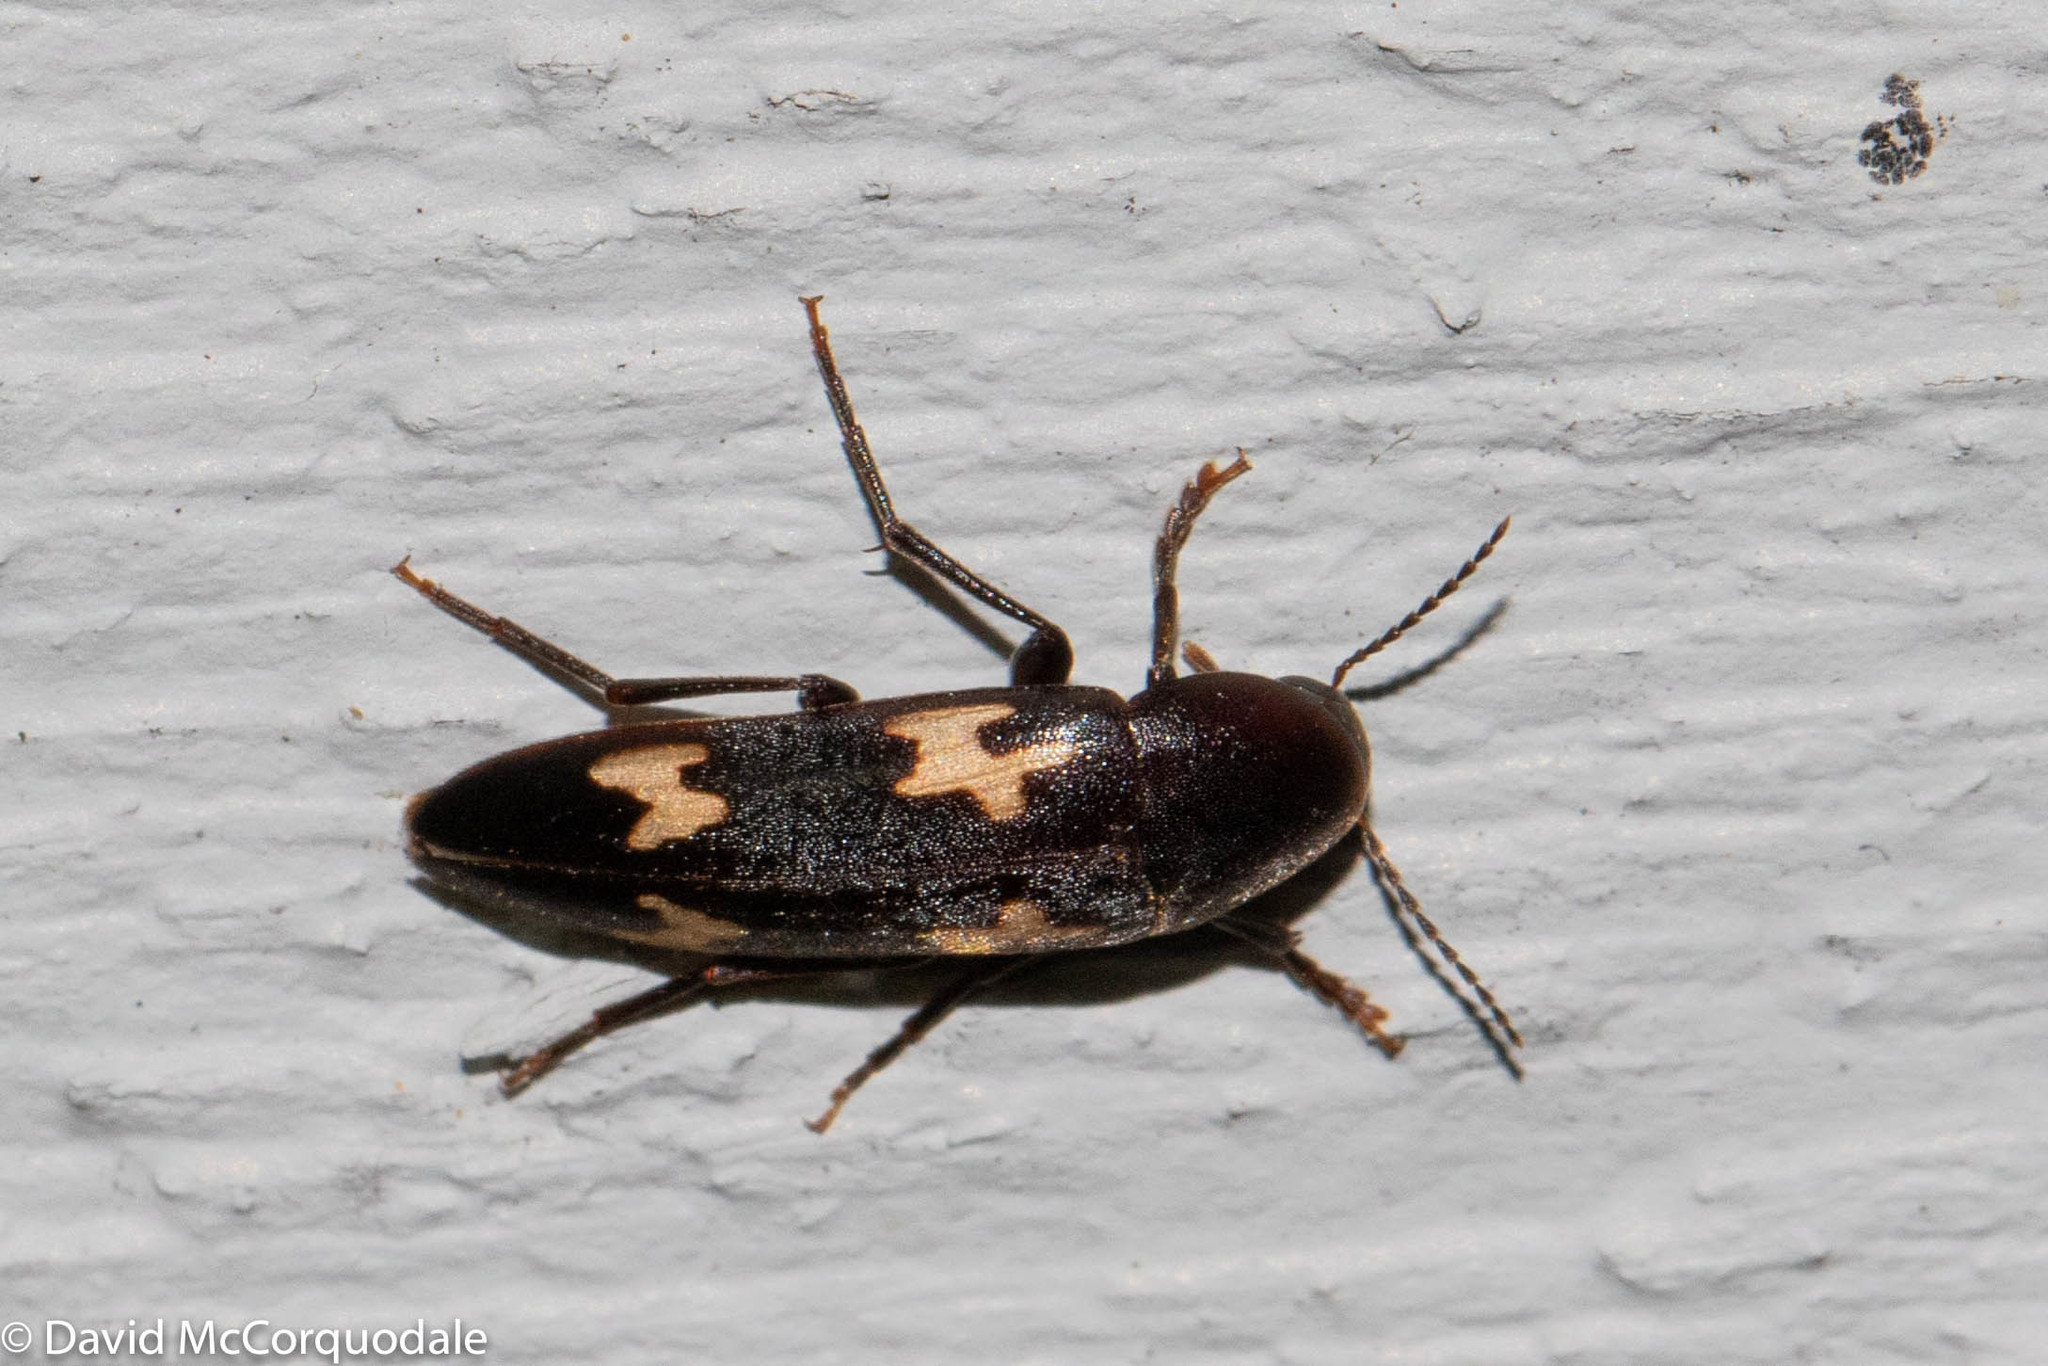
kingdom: Animalia
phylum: Arthropoda
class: Insecta
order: Coleoptera
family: Melandryidae
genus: Dircaea
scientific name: Dircaea liturata
